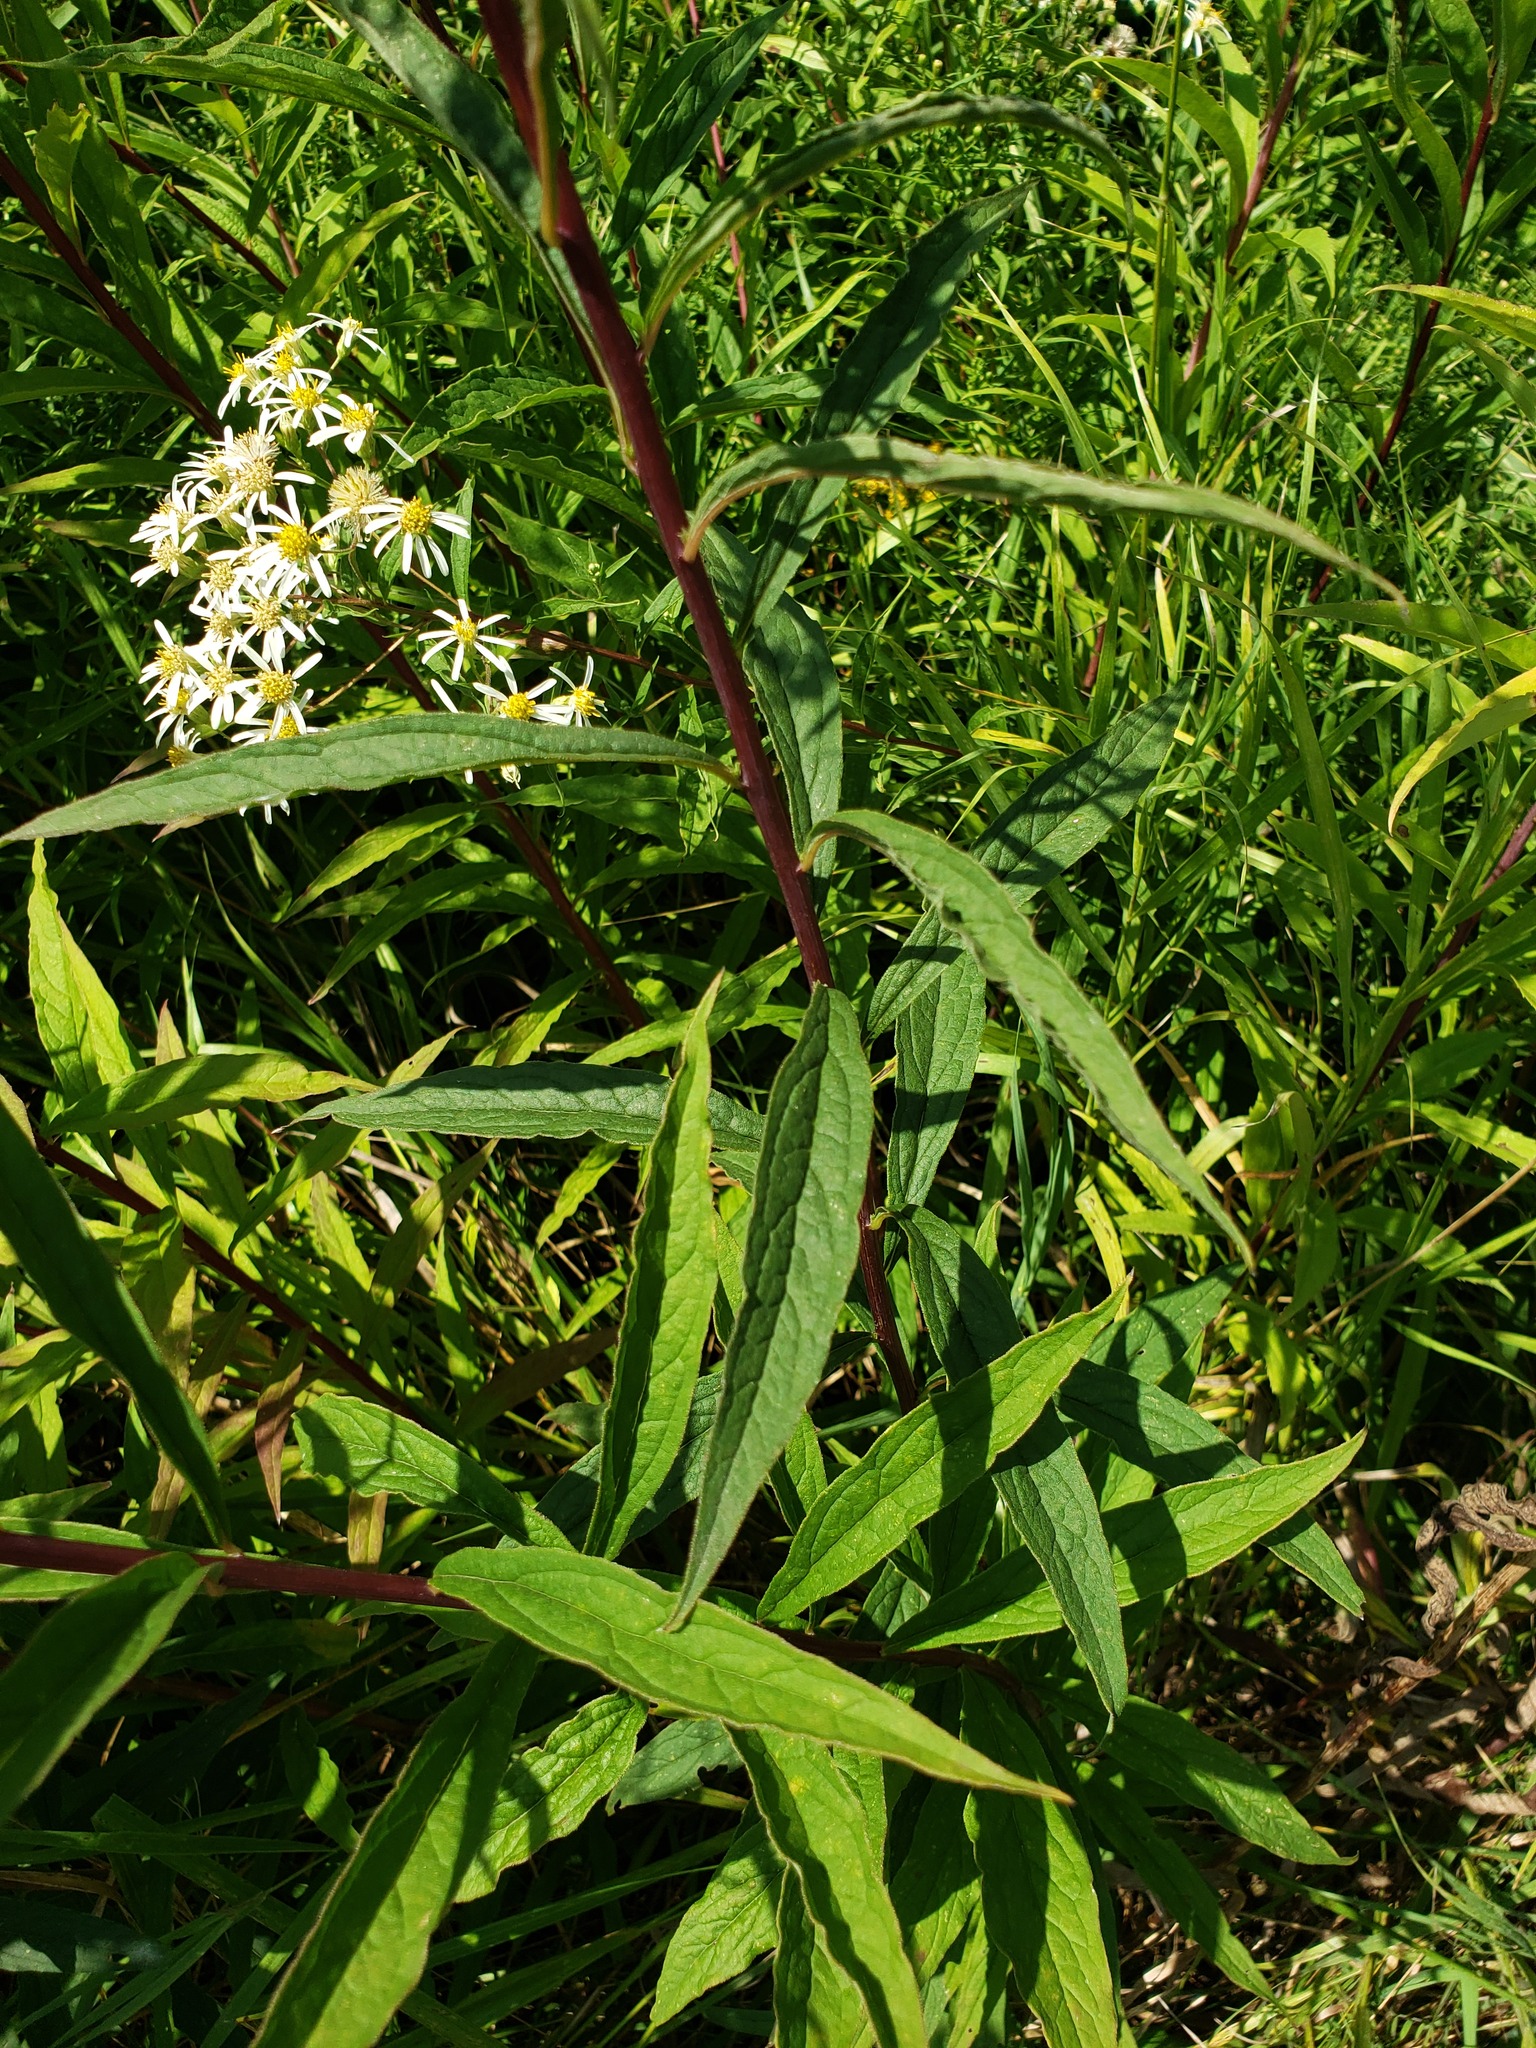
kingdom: Plantae
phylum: Tracheophyta
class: Magnoliopsida
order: Asterales
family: Asteraceae
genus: Doellingeria
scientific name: Doellingeria umbellata
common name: Flat-top white aster
